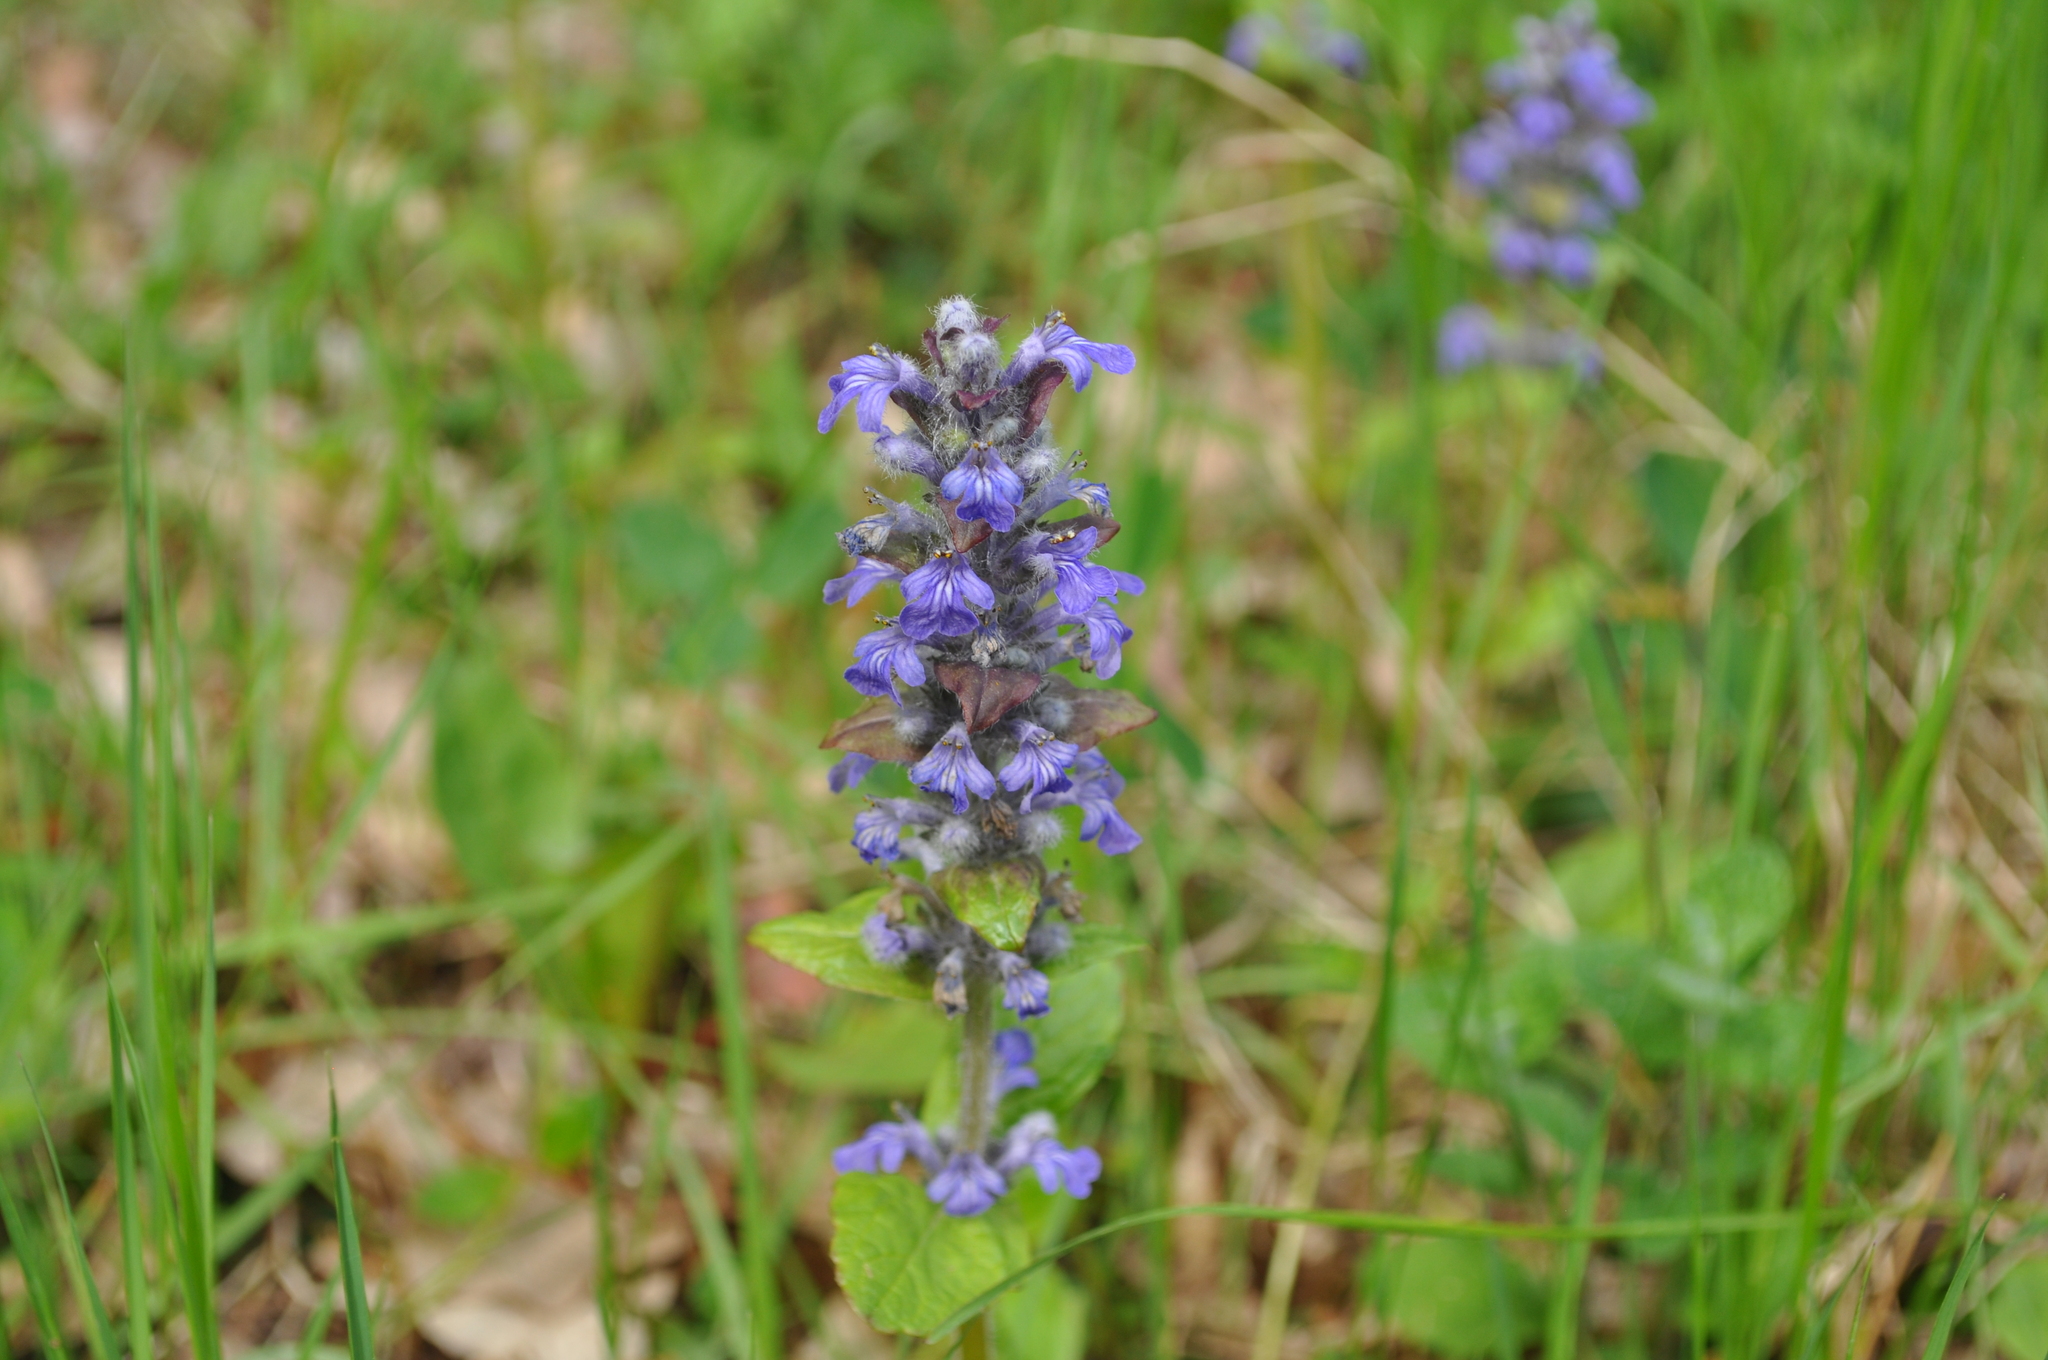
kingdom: Plantae
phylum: Tracheophyta
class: Magnoliopsida
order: Lamiales
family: Lamiaceae
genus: Ajuga
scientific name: Ajuga reptans
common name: Bugle
